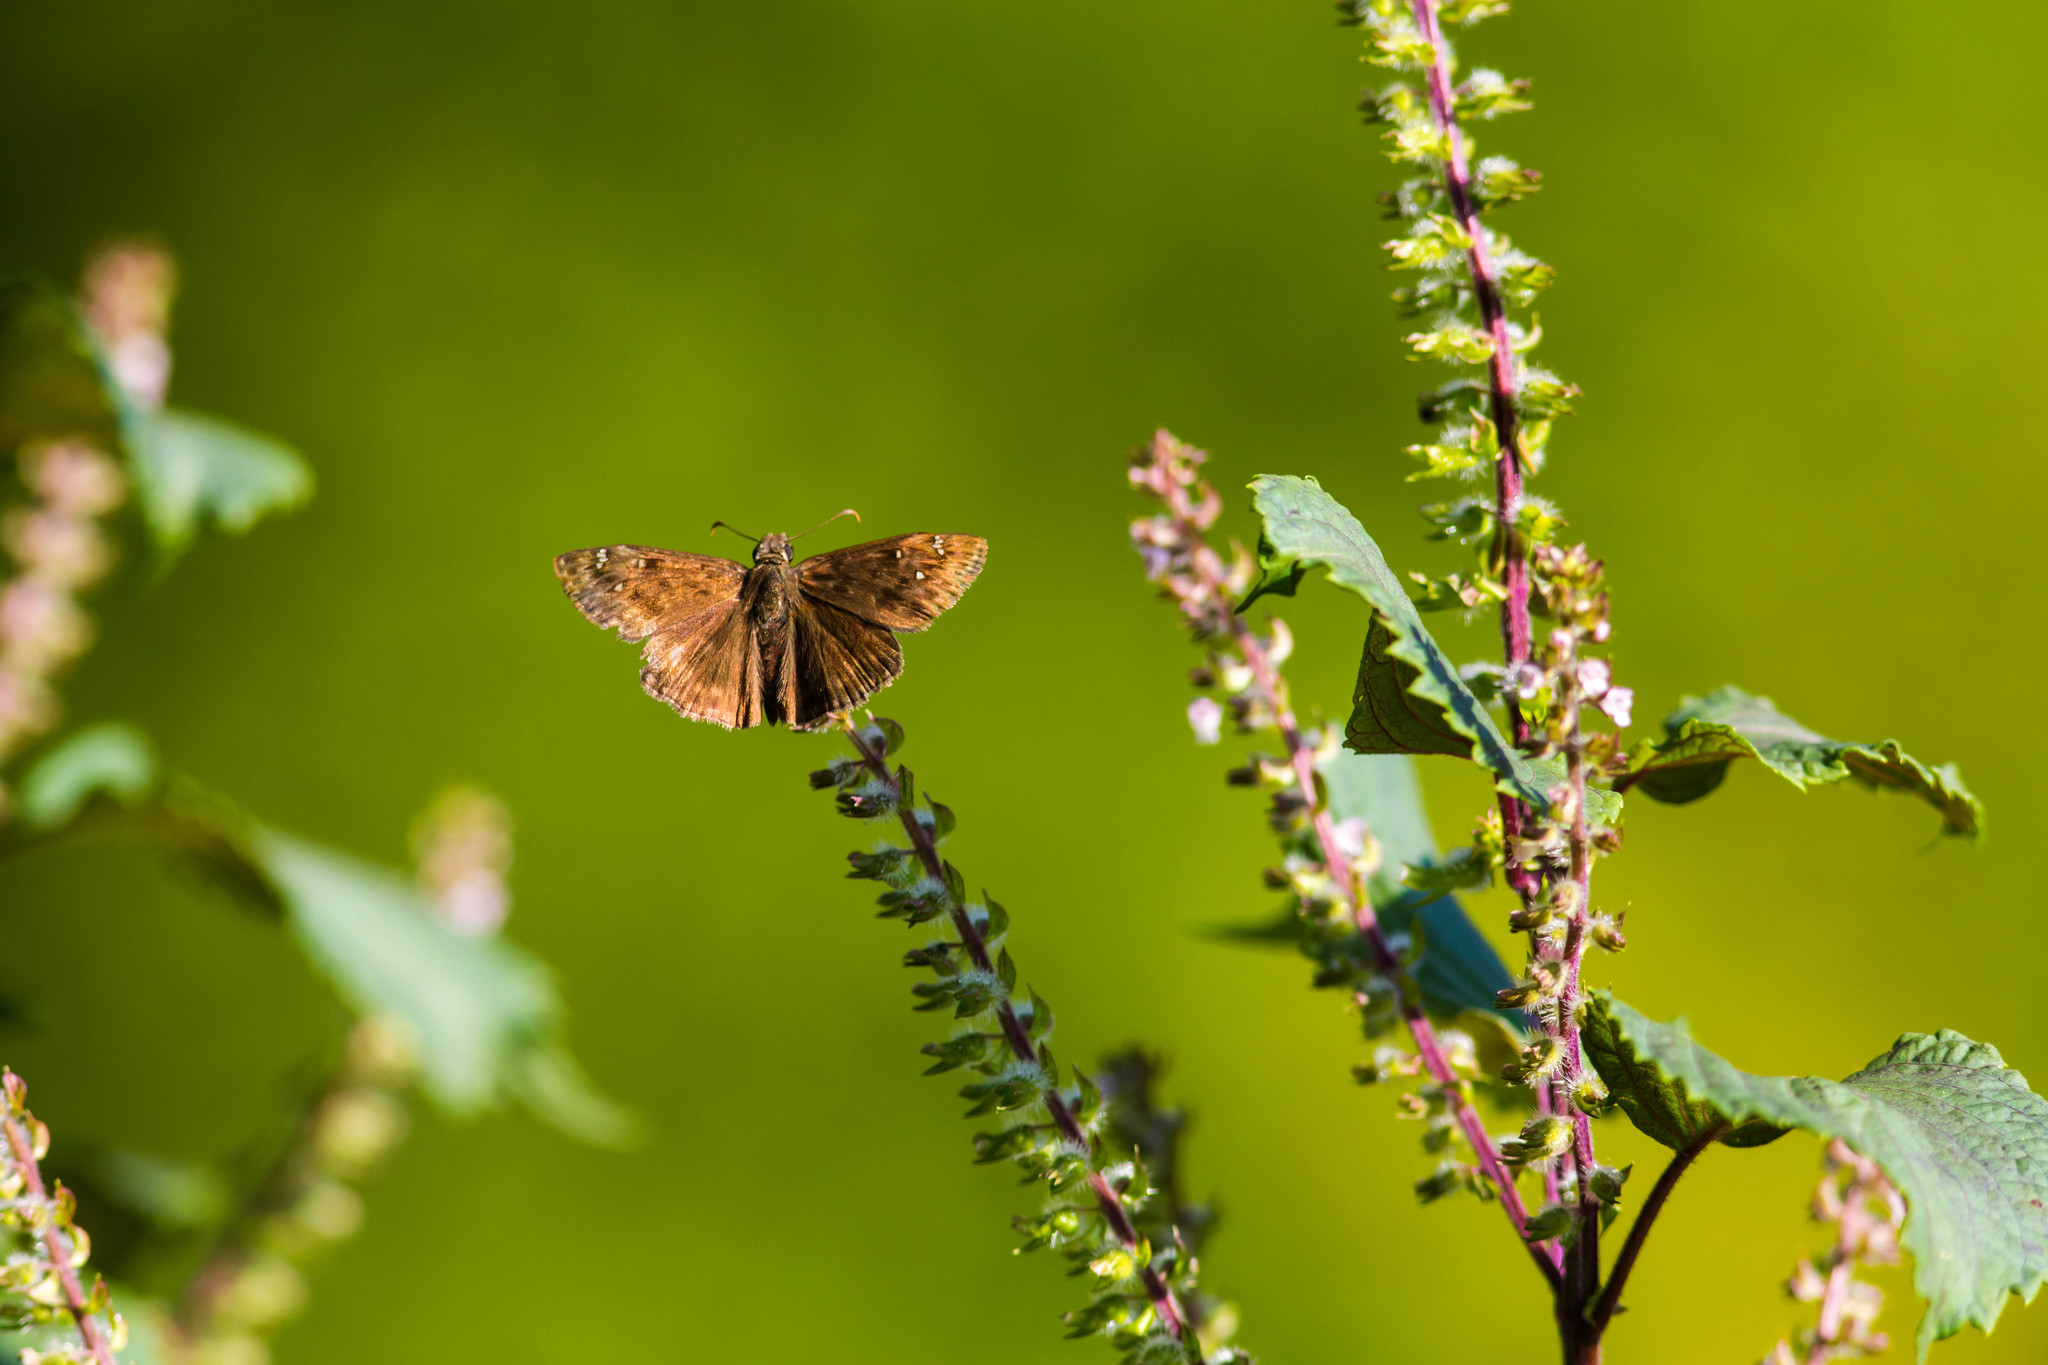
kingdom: Animalia
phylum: Arthropoda
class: Insecta
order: Lepidoptera
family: Hesperiidae
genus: Erynnis
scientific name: Erynnis horatius
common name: Horace's duskywing
